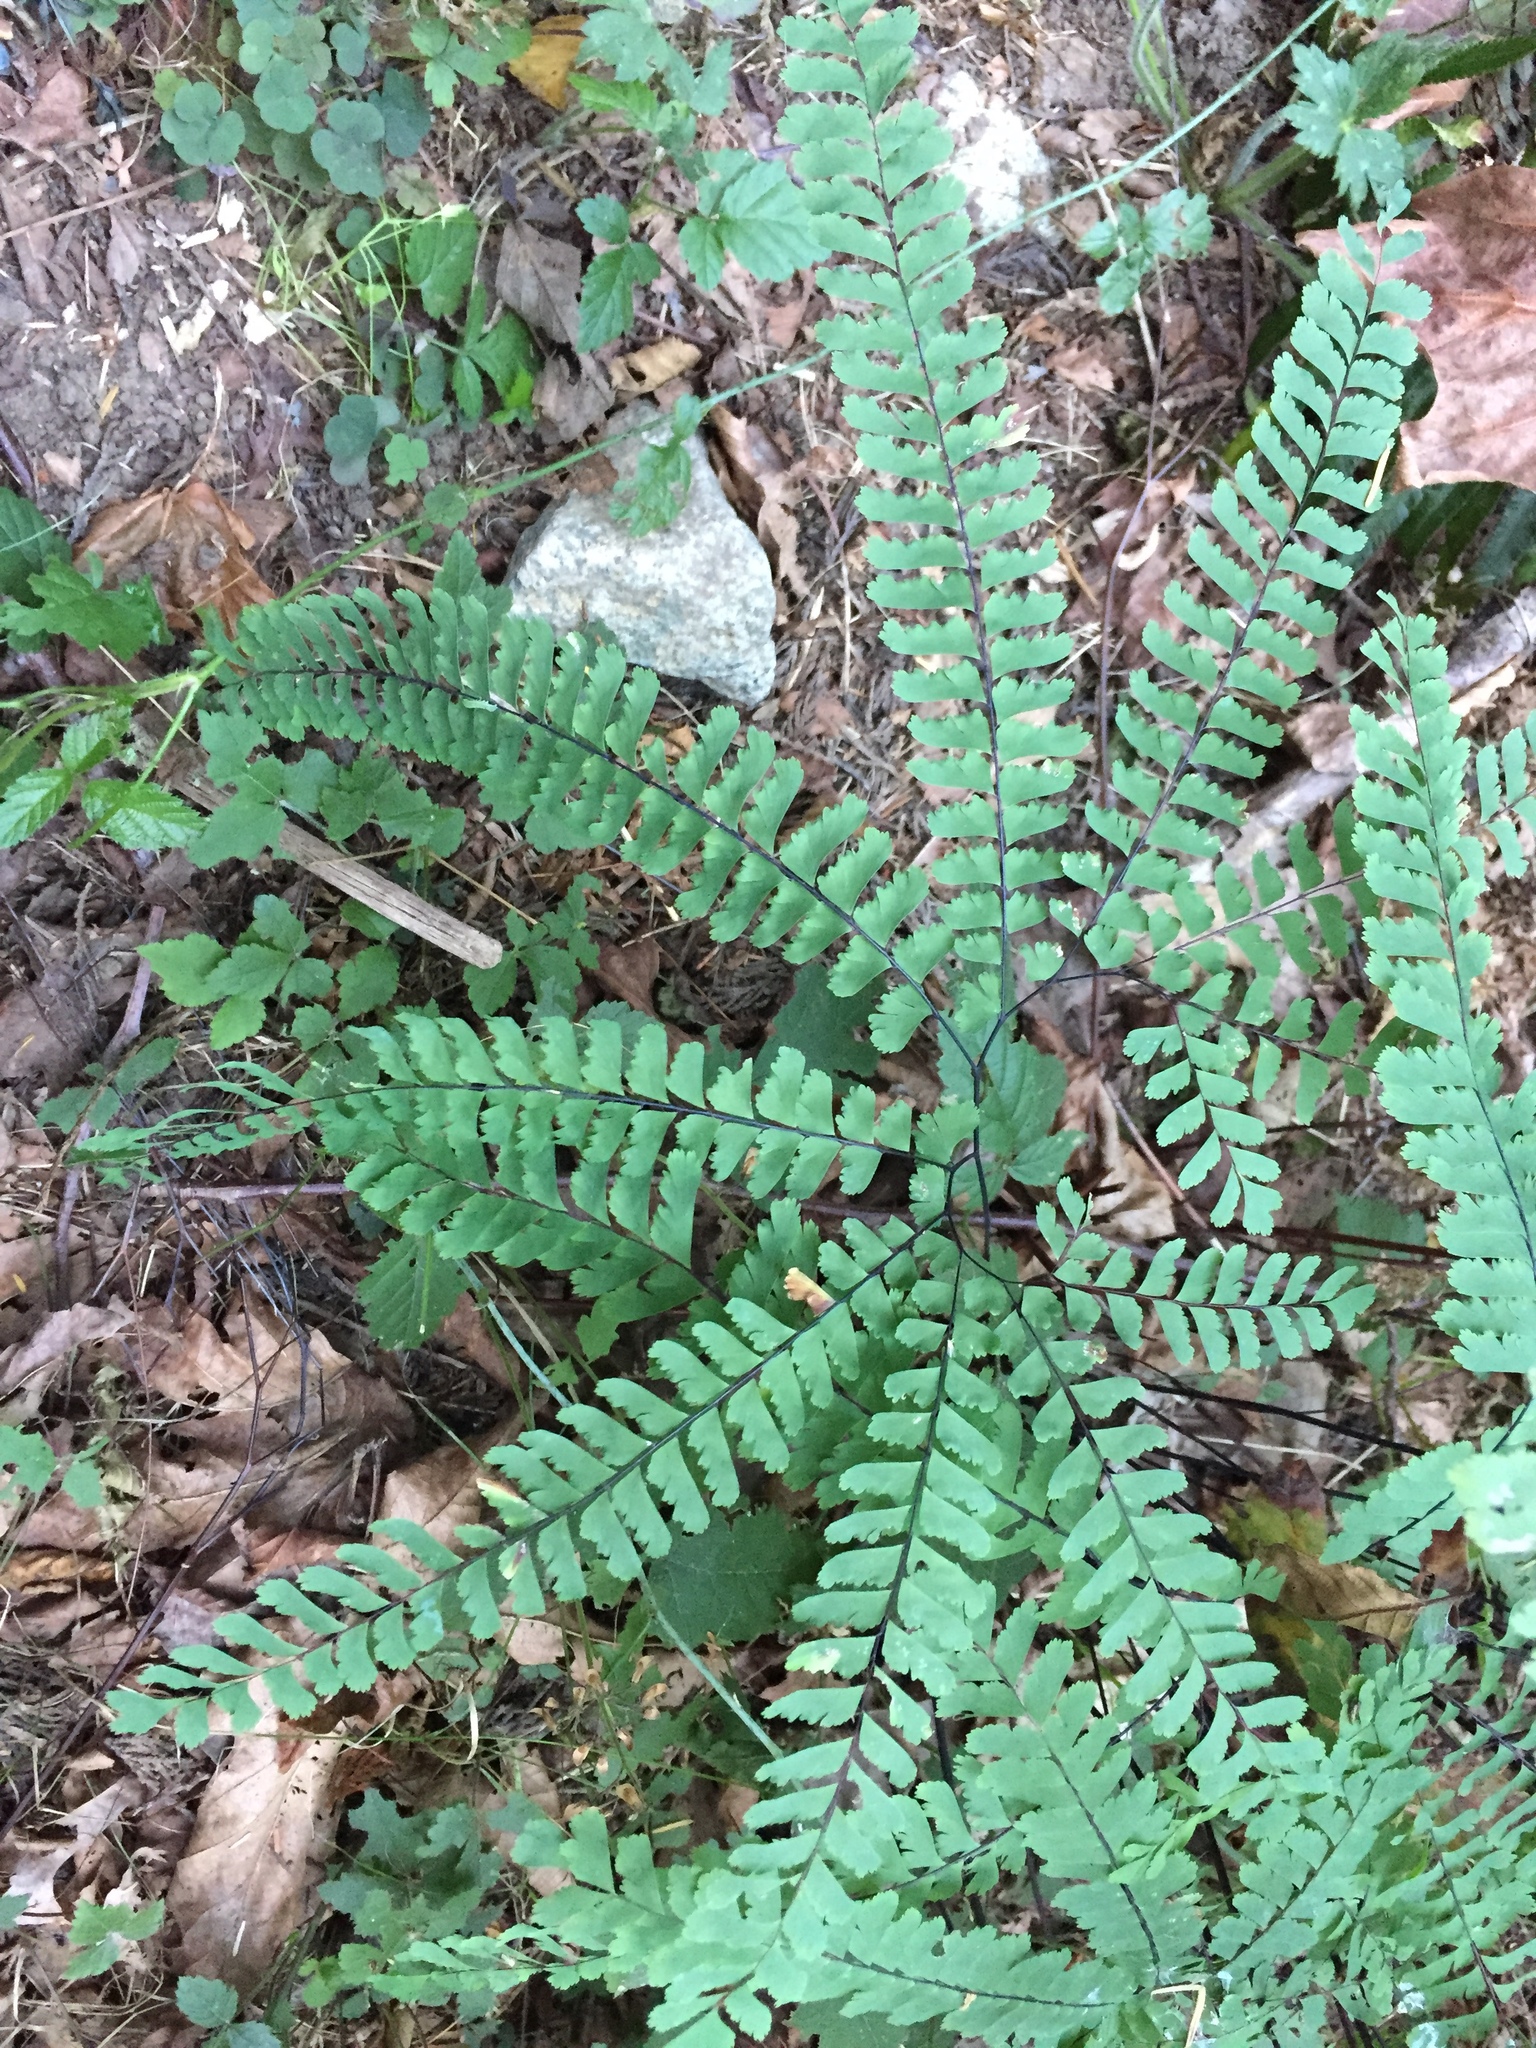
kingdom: Plantae
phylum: Tracheophyta
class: Polypodiopsida
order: Polypodiales
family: Pteridaceae
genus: Adiantum
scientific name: Adiantum aleuticum
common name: Aleutian maidenhair fern
